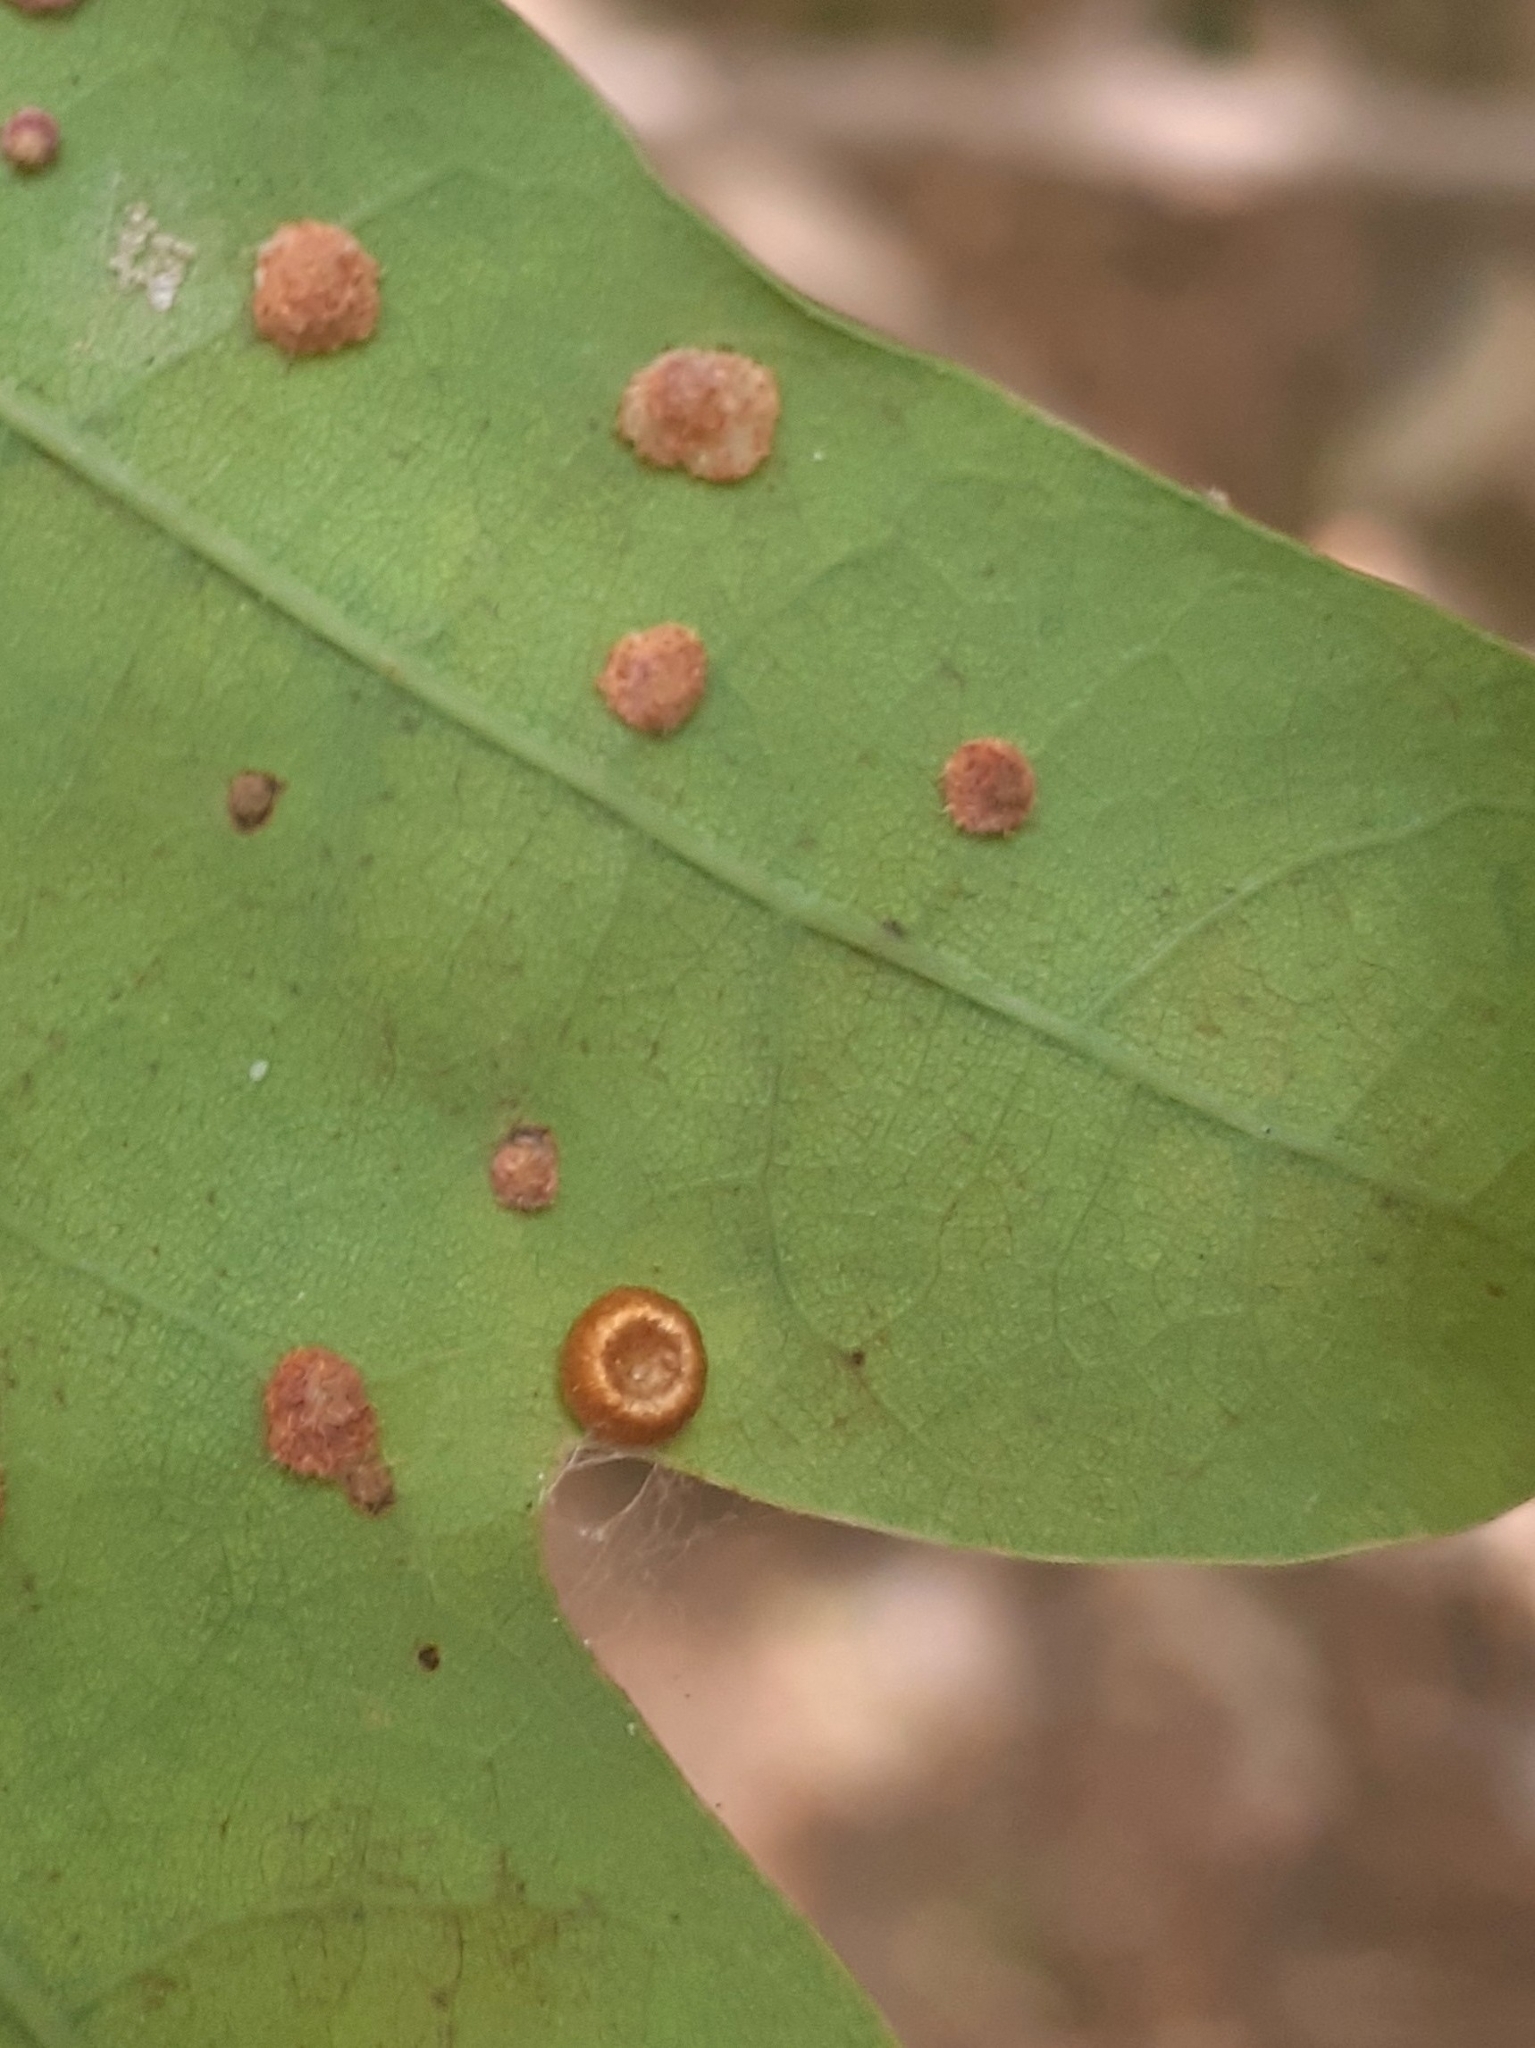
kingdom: Animalia
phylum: Arthropoda
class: Insecta
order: Hymenoptera
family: Cynipidae
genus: Neuroterus
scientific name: Neuroterus numismalis
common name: Silk-button spangle gall
